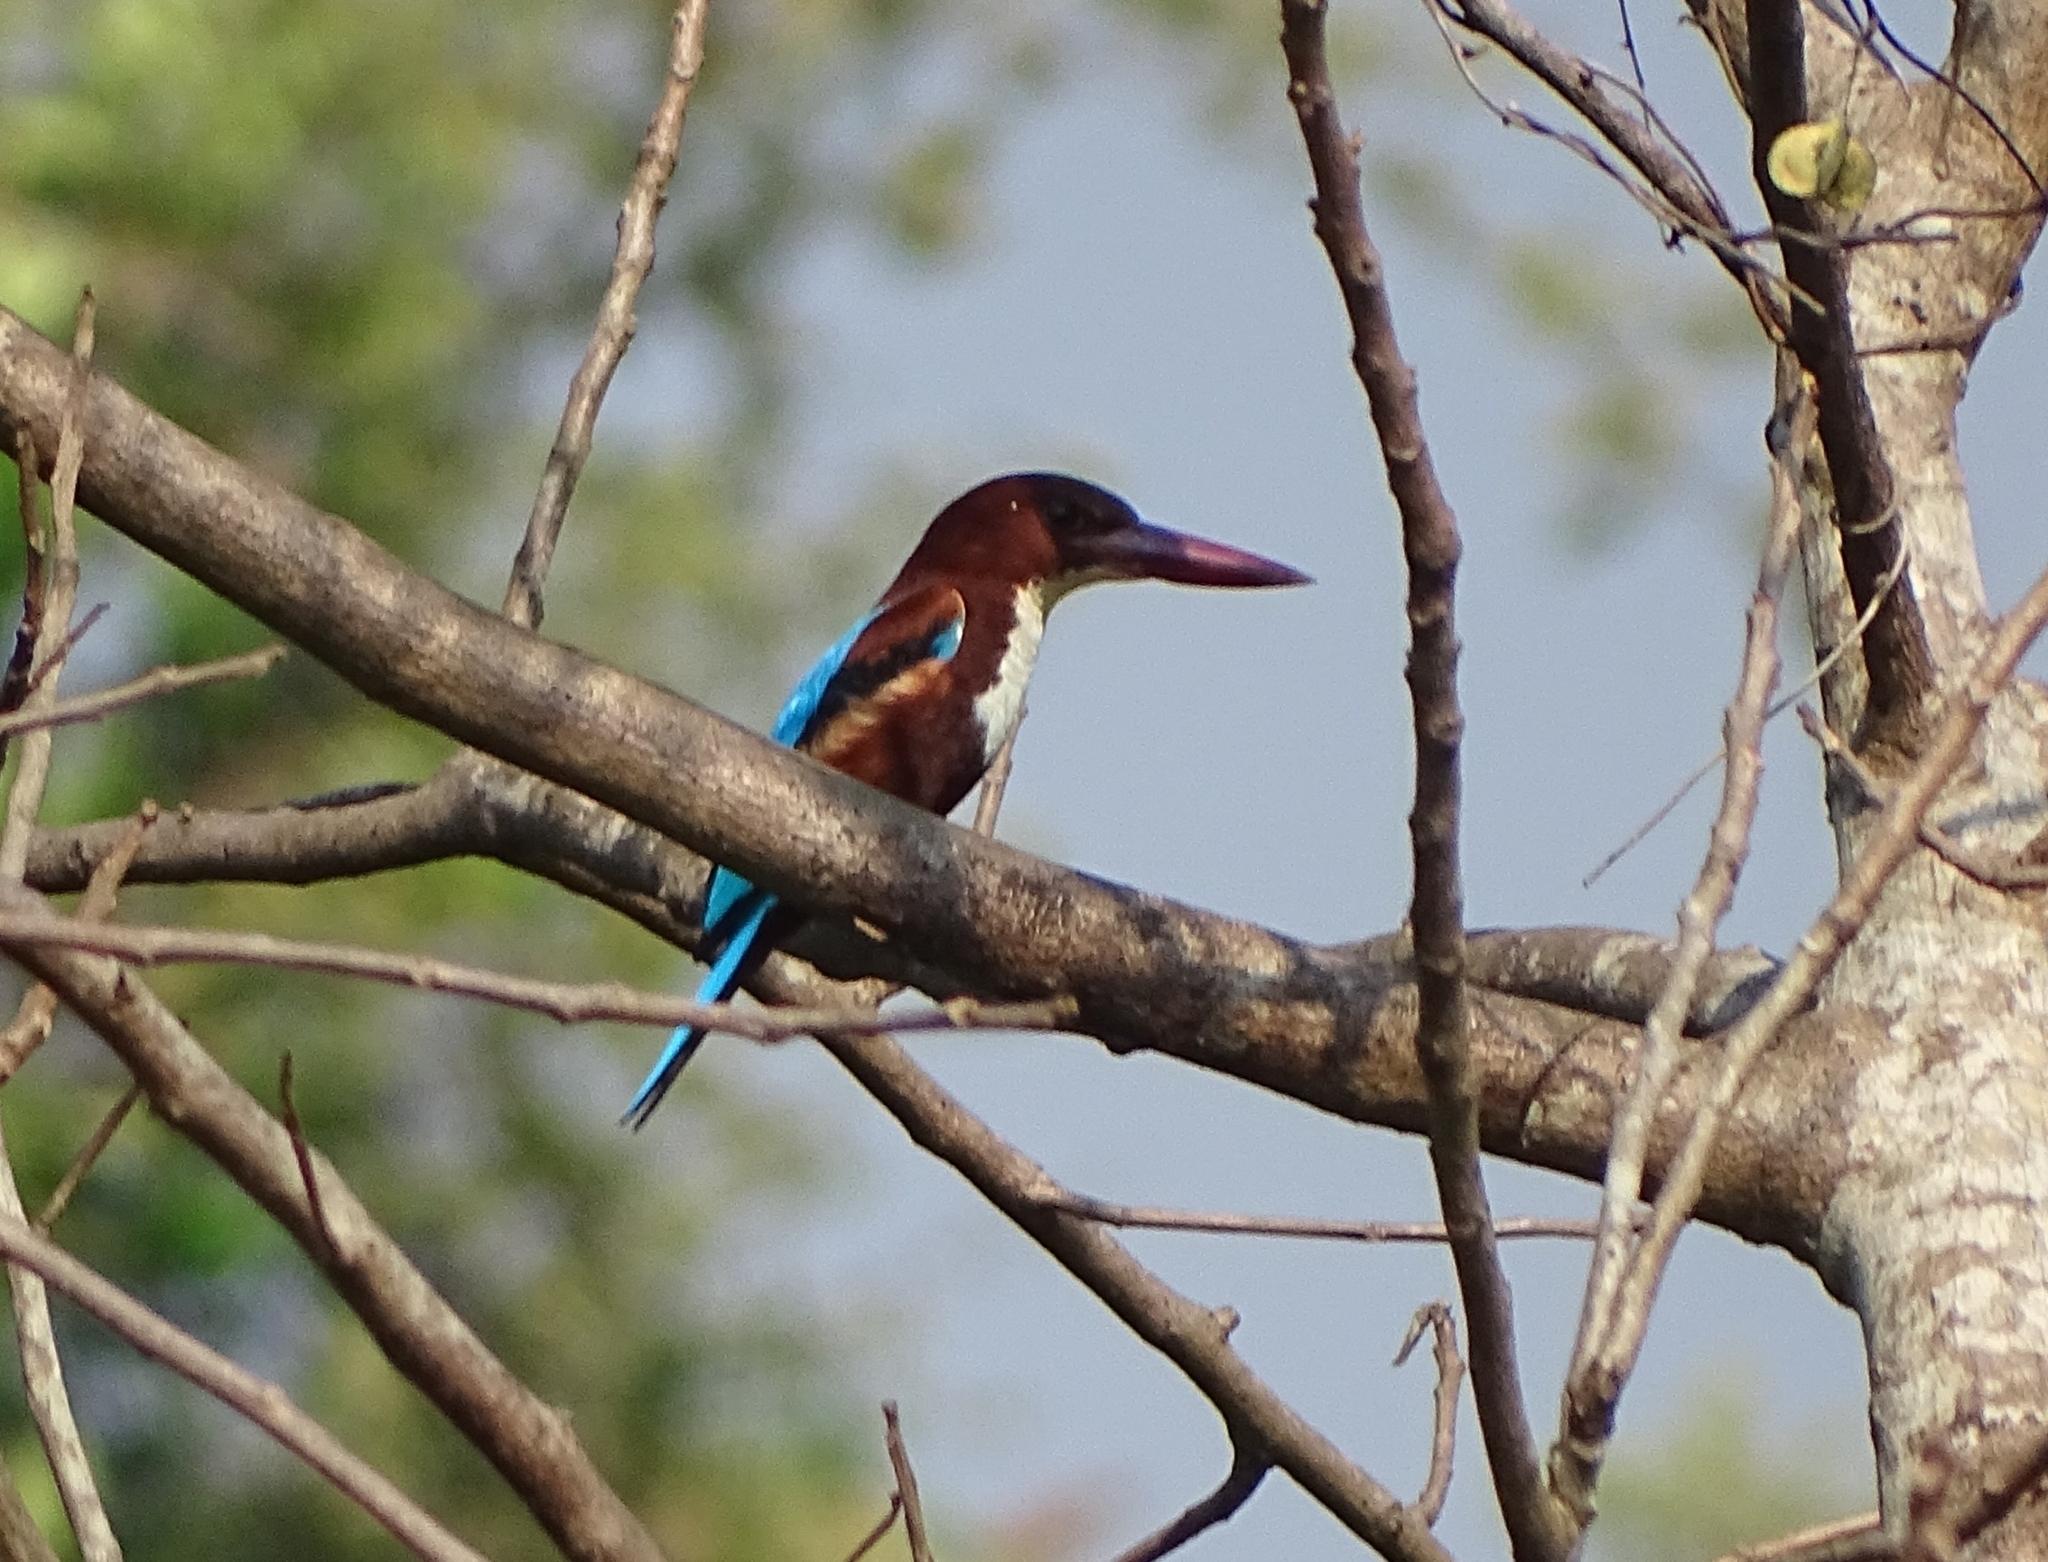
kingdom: Animalia
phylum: Chordata
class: Aves
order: Coraciiformes
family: Alcedinidae
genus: Halcyon
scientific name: Halcyon smyrnensis
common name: White-throated kingfisher
